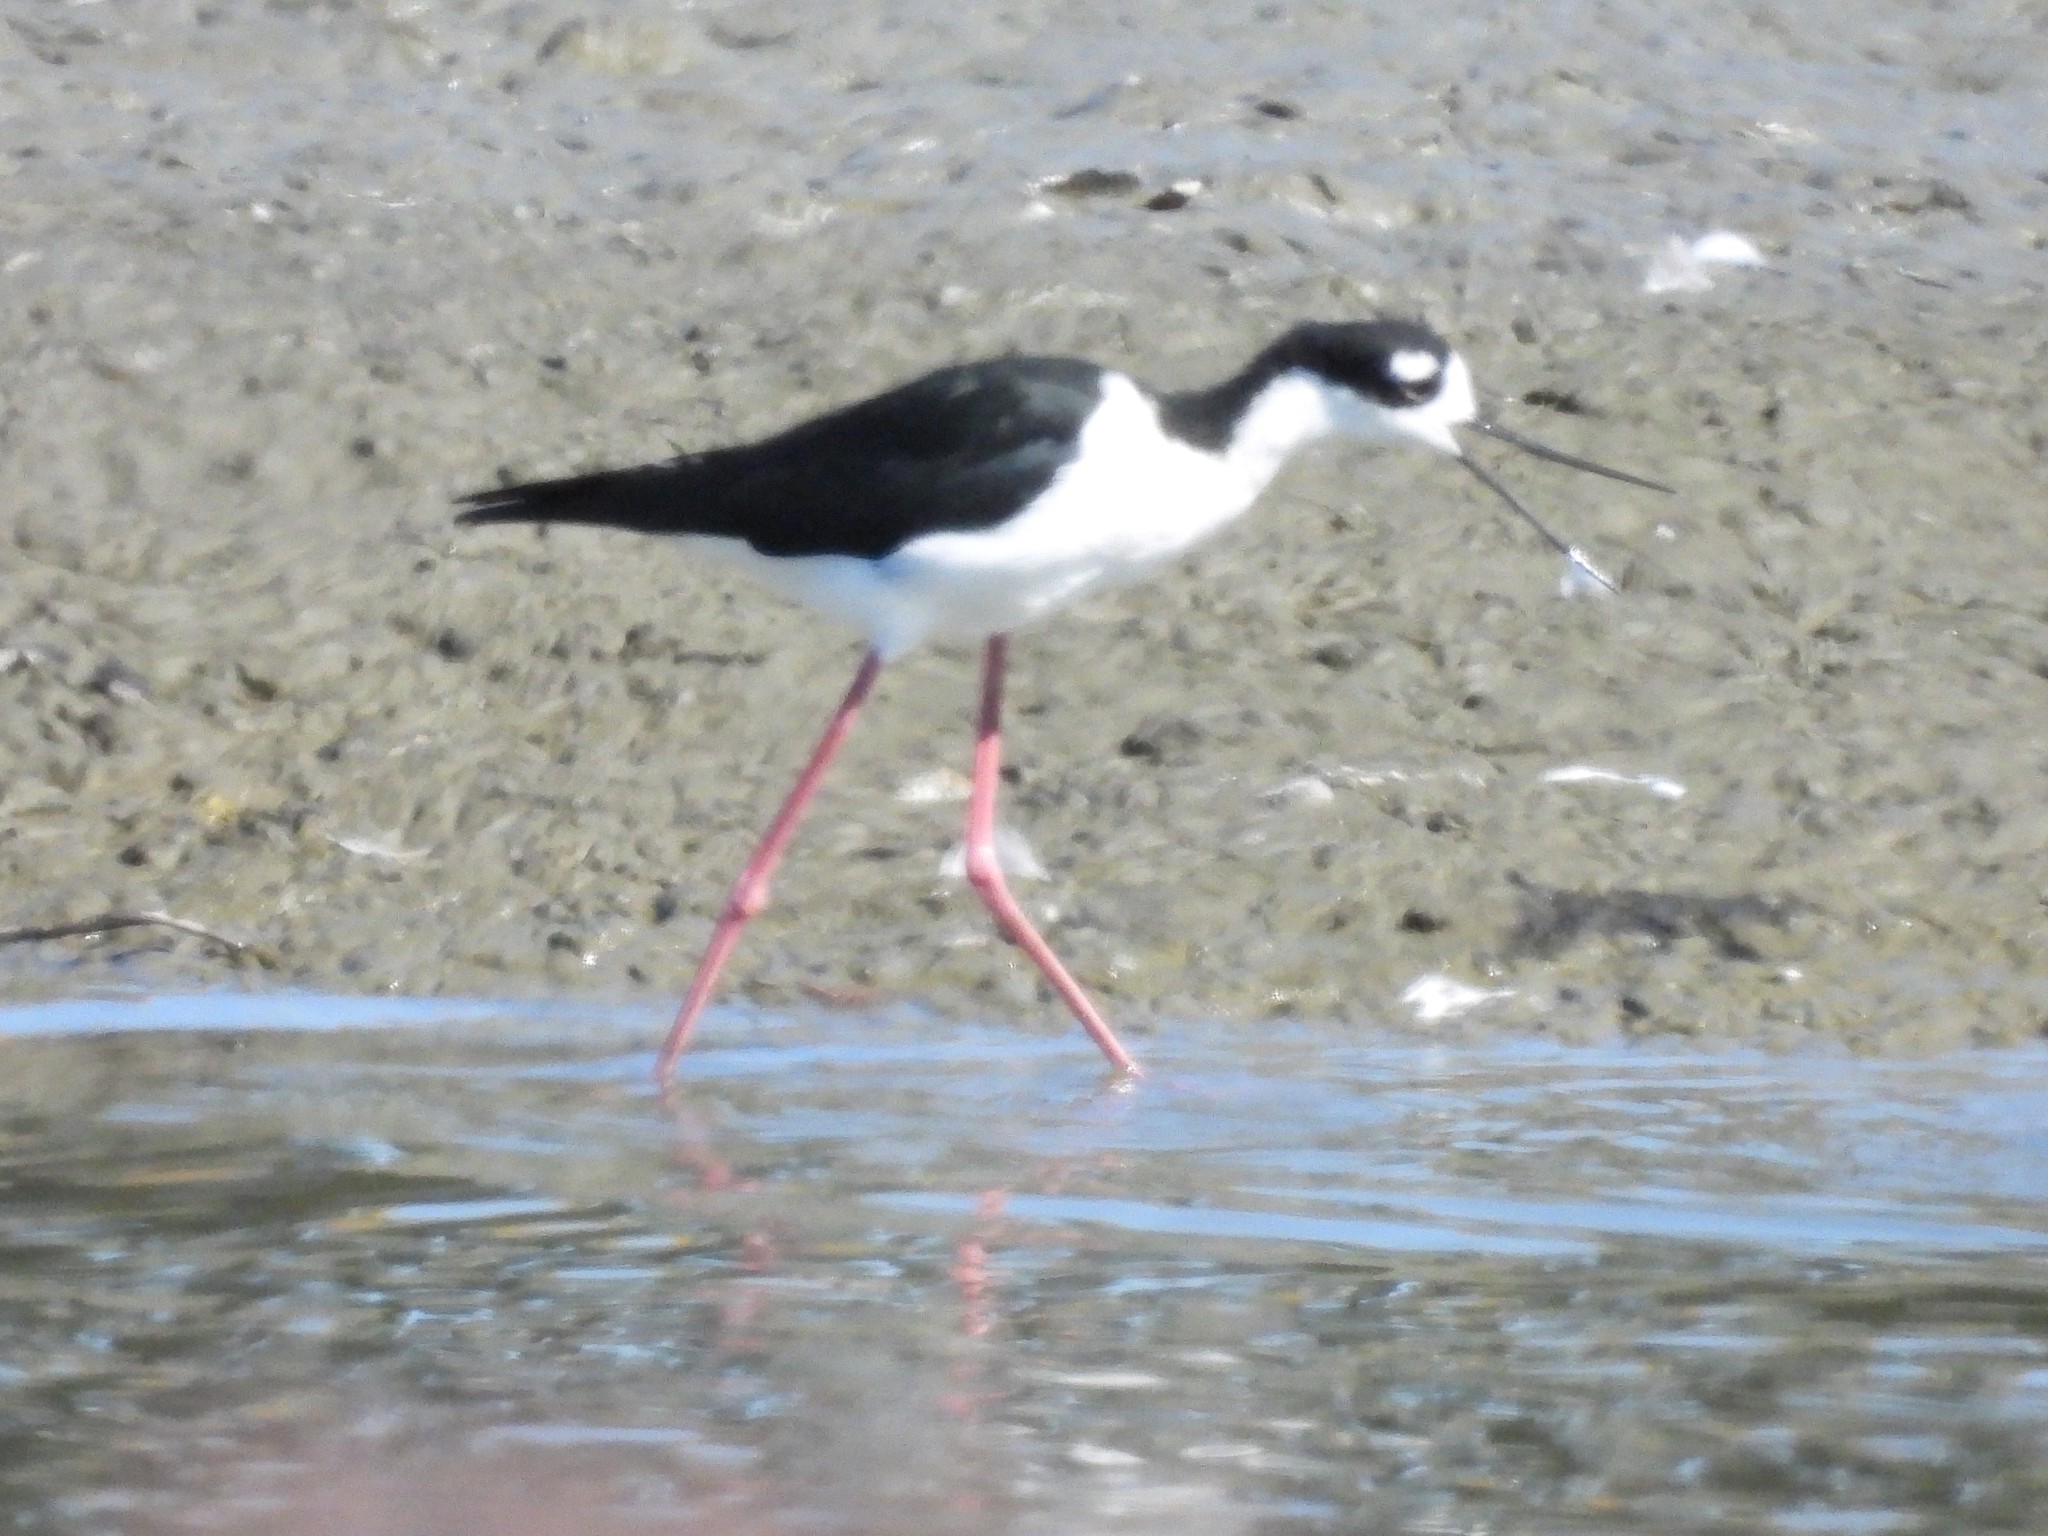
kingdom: Animalia
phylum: Chordata
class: Aves
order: Charadriiformes
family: Recurvirostridae
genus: Himantopus
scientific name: Himantopus mexicanus
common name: Black-necked stilt
